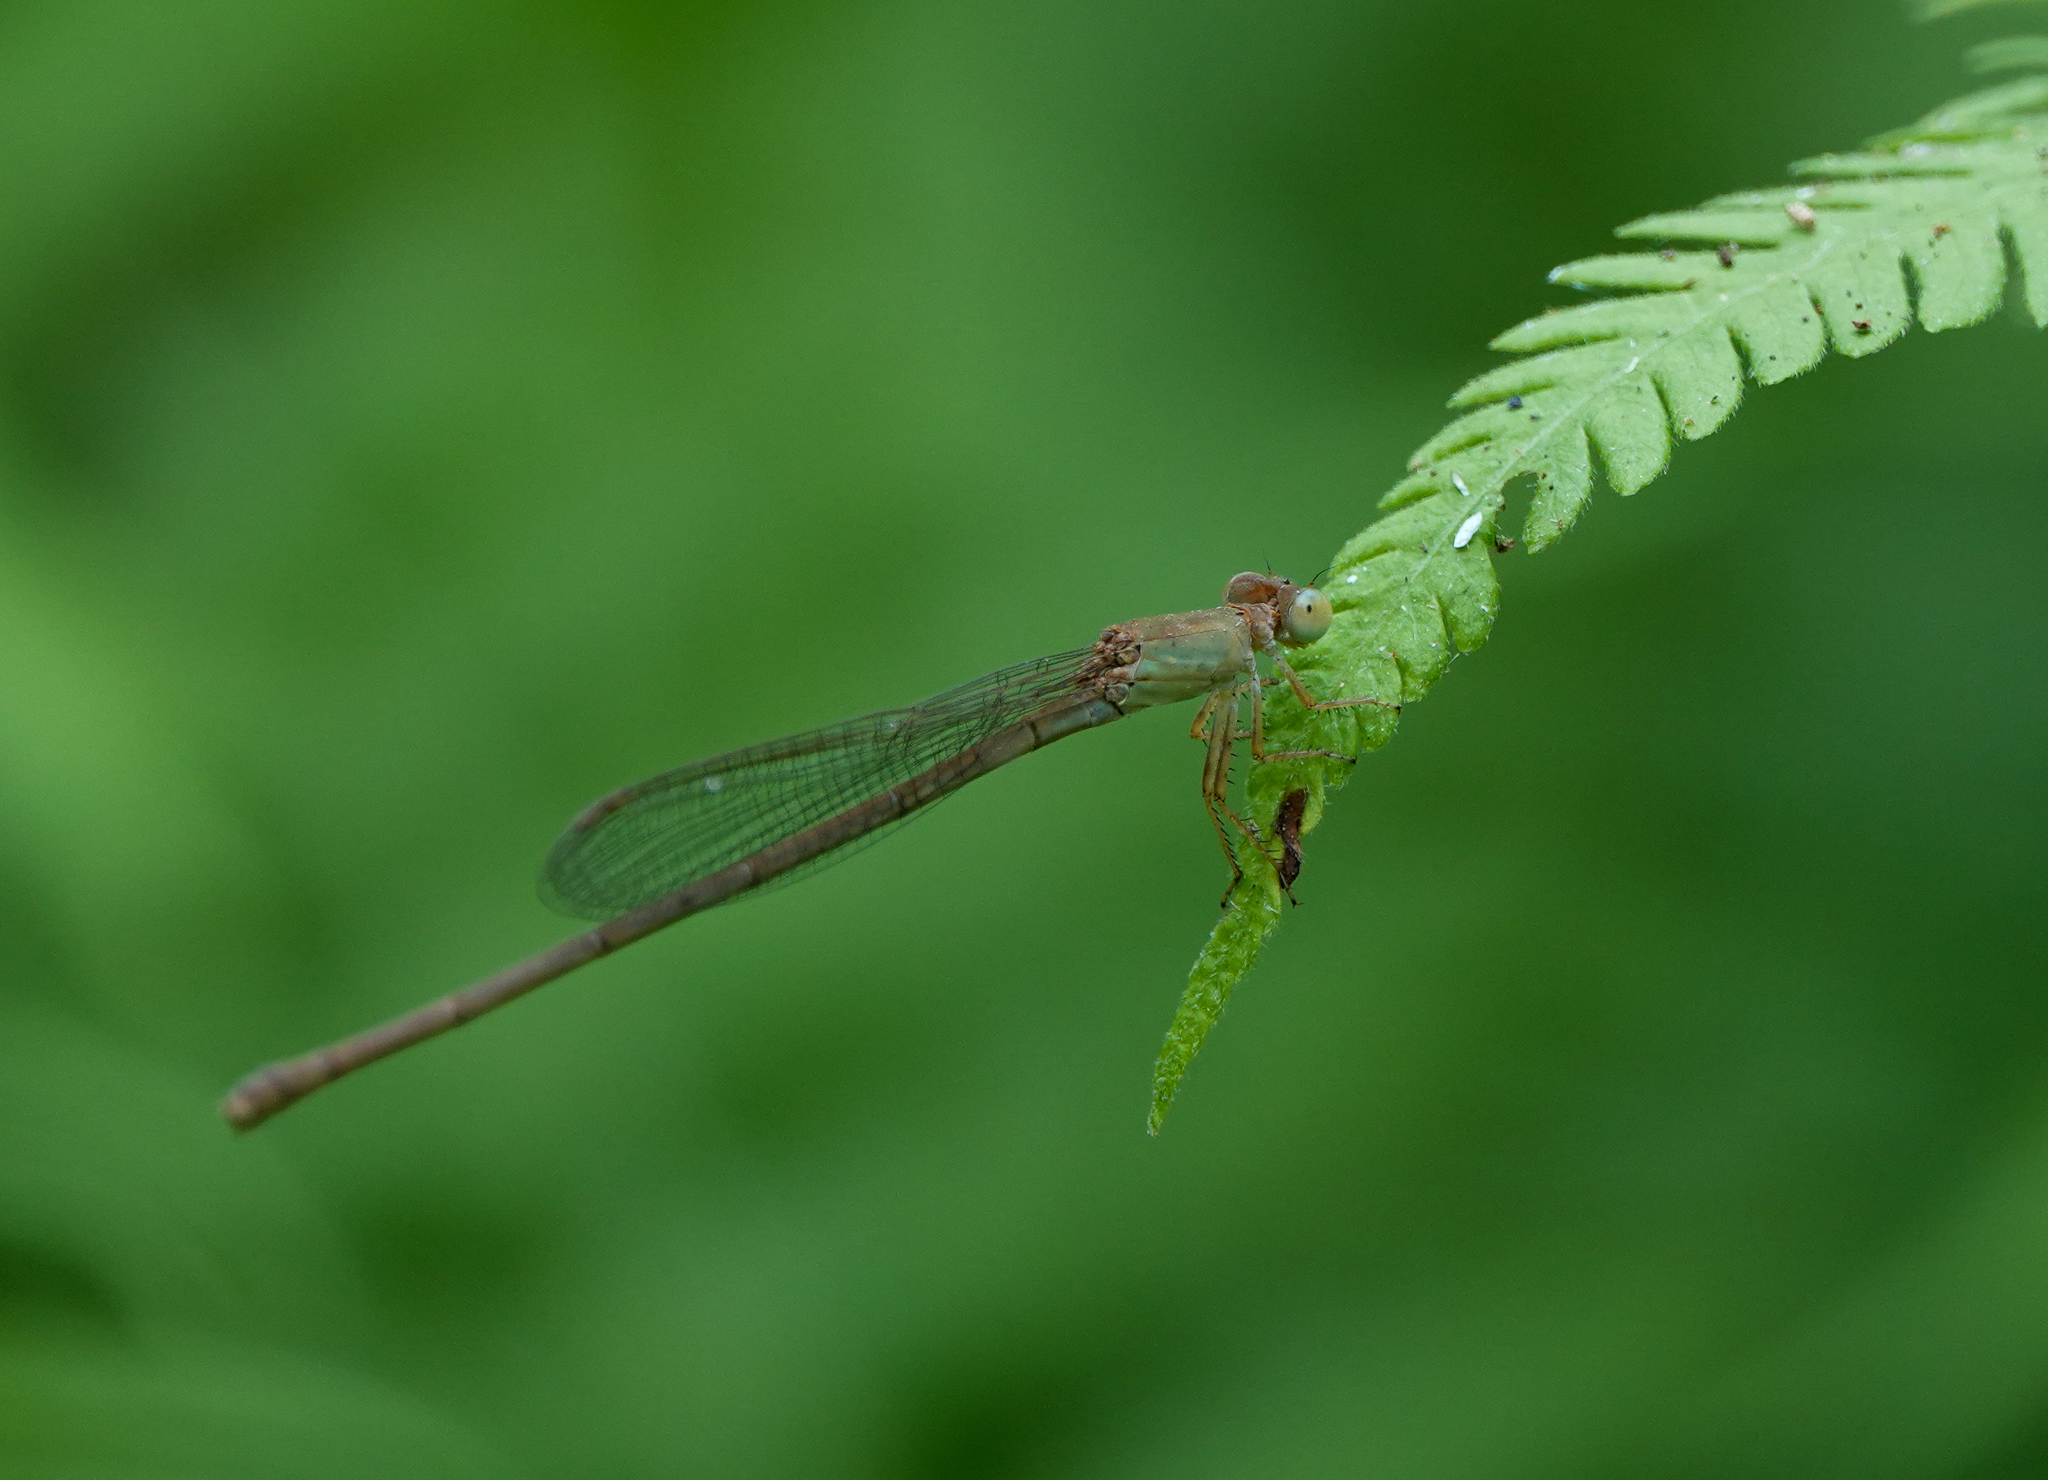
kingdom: Animalia
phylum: Arthropoda
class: Insecta
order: Odonata
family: Coenagrionidae
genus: Ceriagrion
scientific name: Ceriagrion coromandelianum
